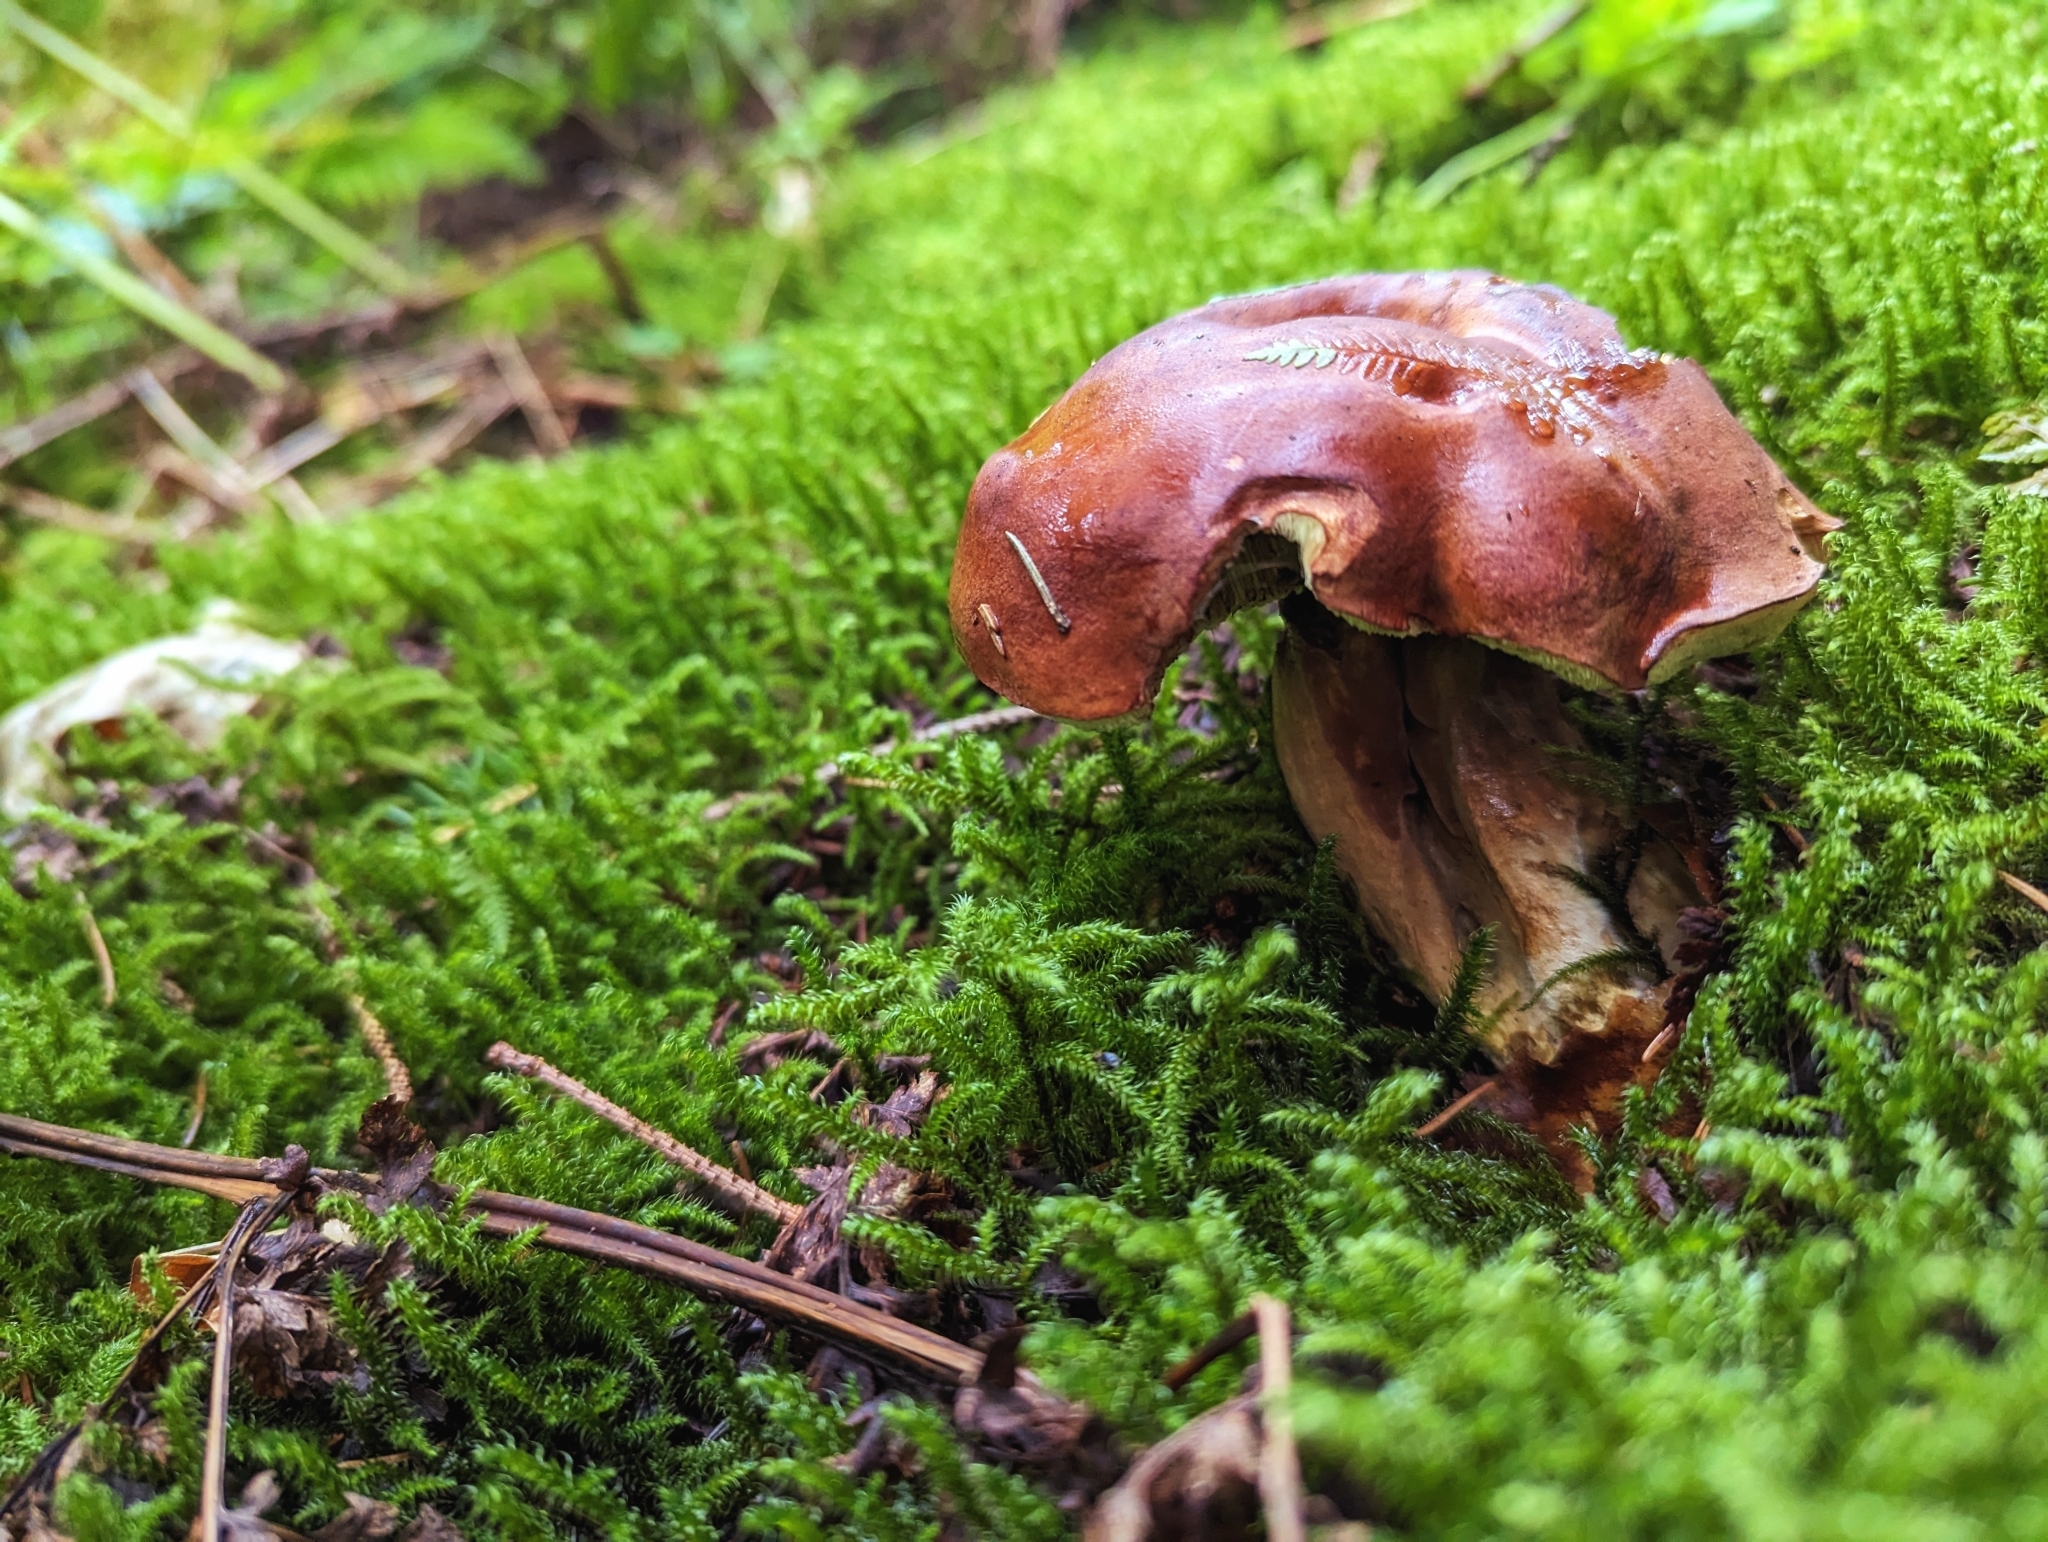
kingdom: Fungi
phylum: Basidiomycota
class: Agaricomycetes
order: Boletales
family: Boletaceae
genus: Imleria
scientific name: Imleria badia
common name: Bay bolete
